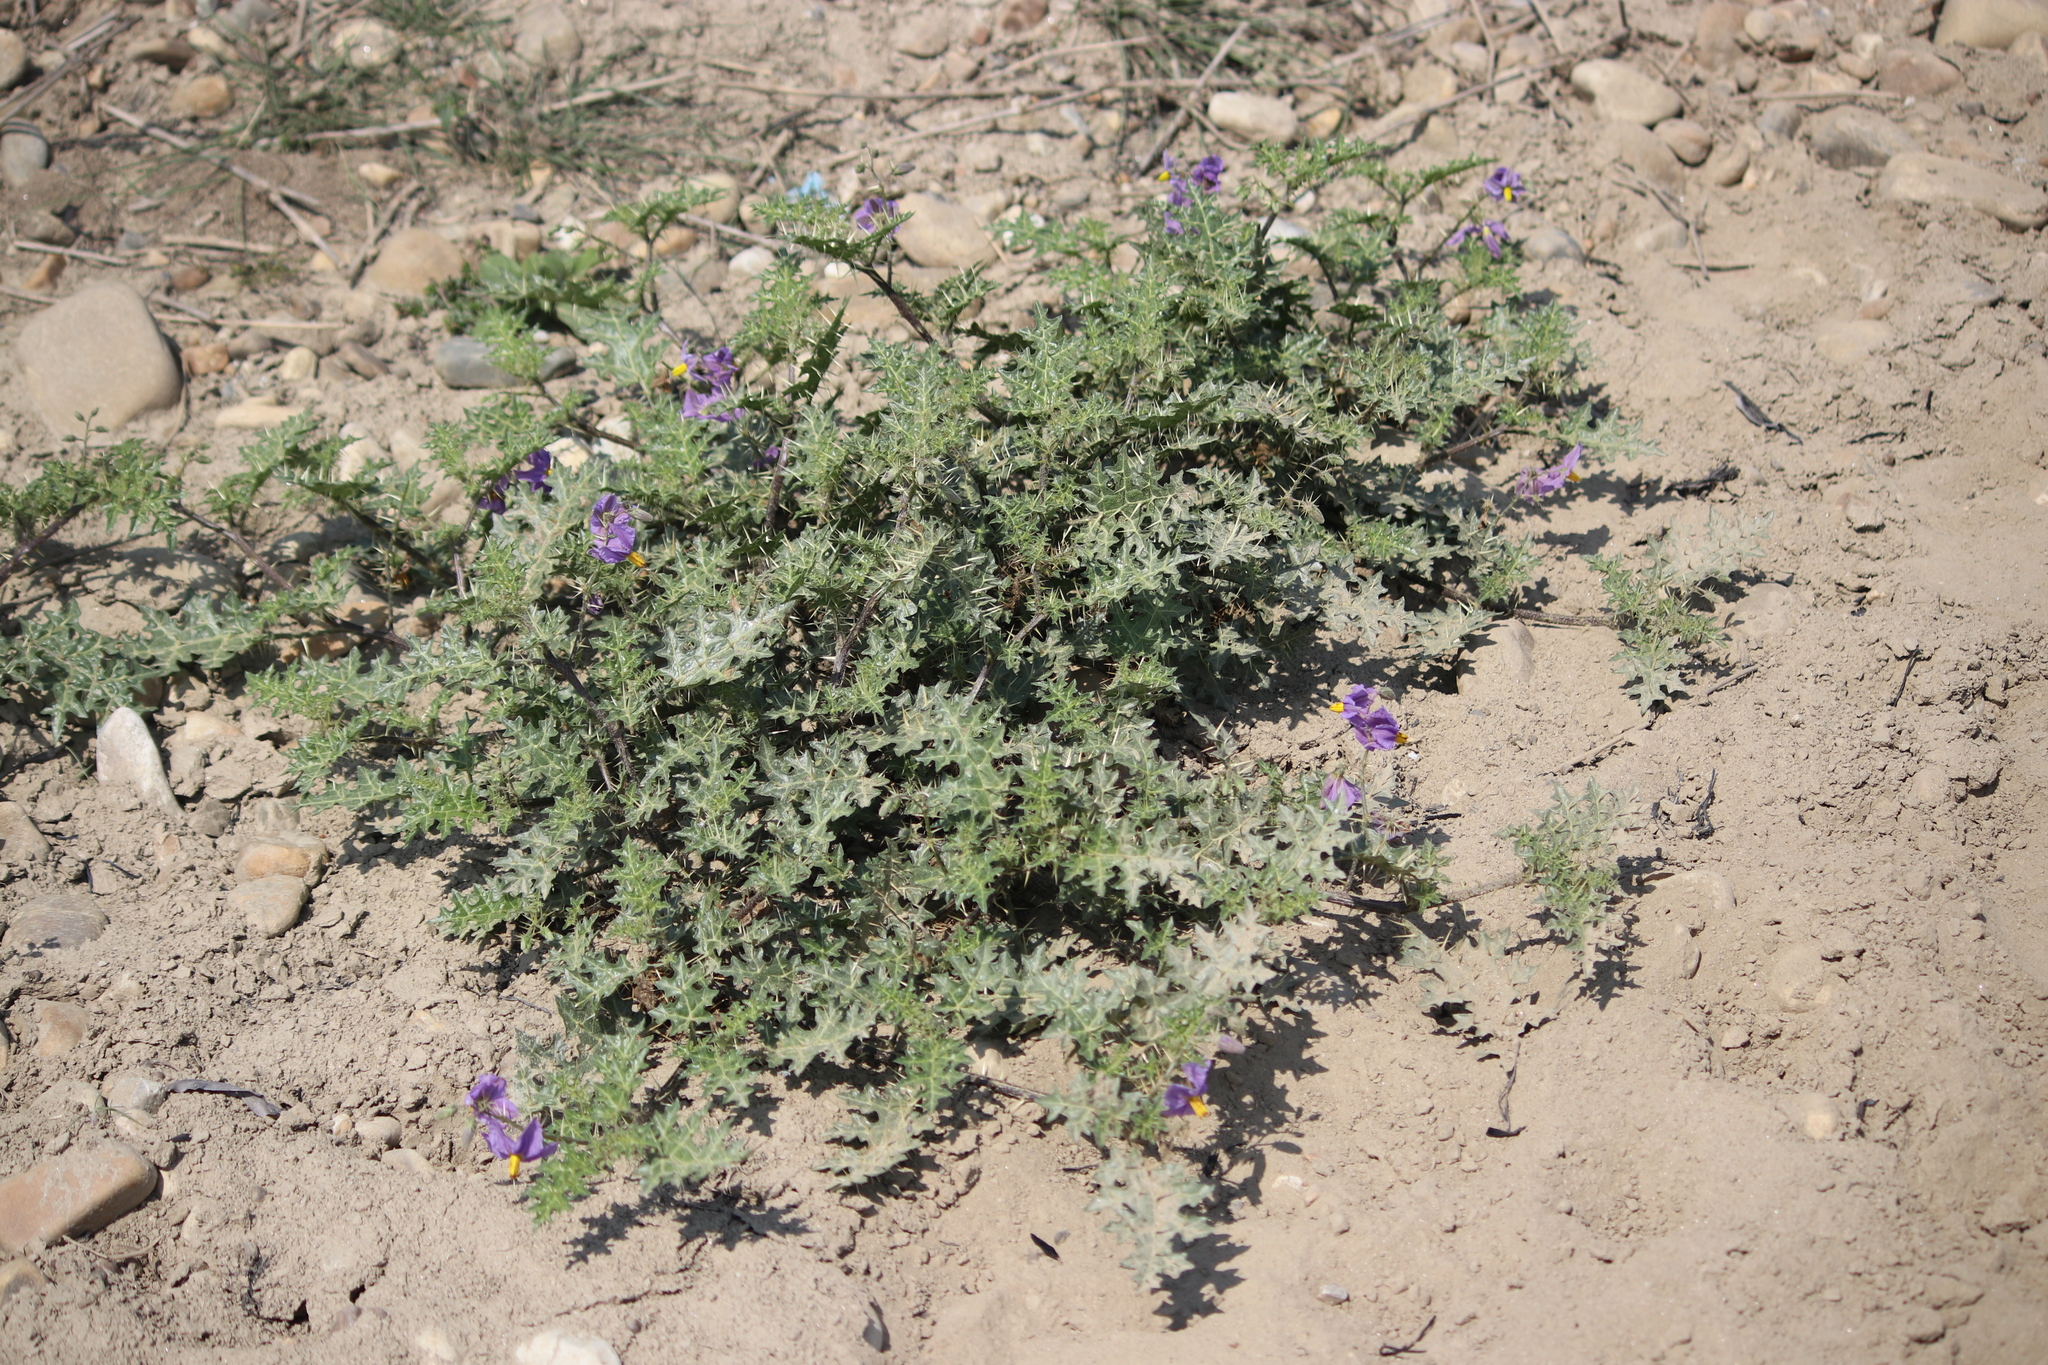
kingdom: Plantae
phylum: Tracheophyta
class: Magnoliopsida
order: Solanales
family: Solanaceae
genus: Solanum
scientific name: Solanum virginianum
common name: Surattense nightshade
